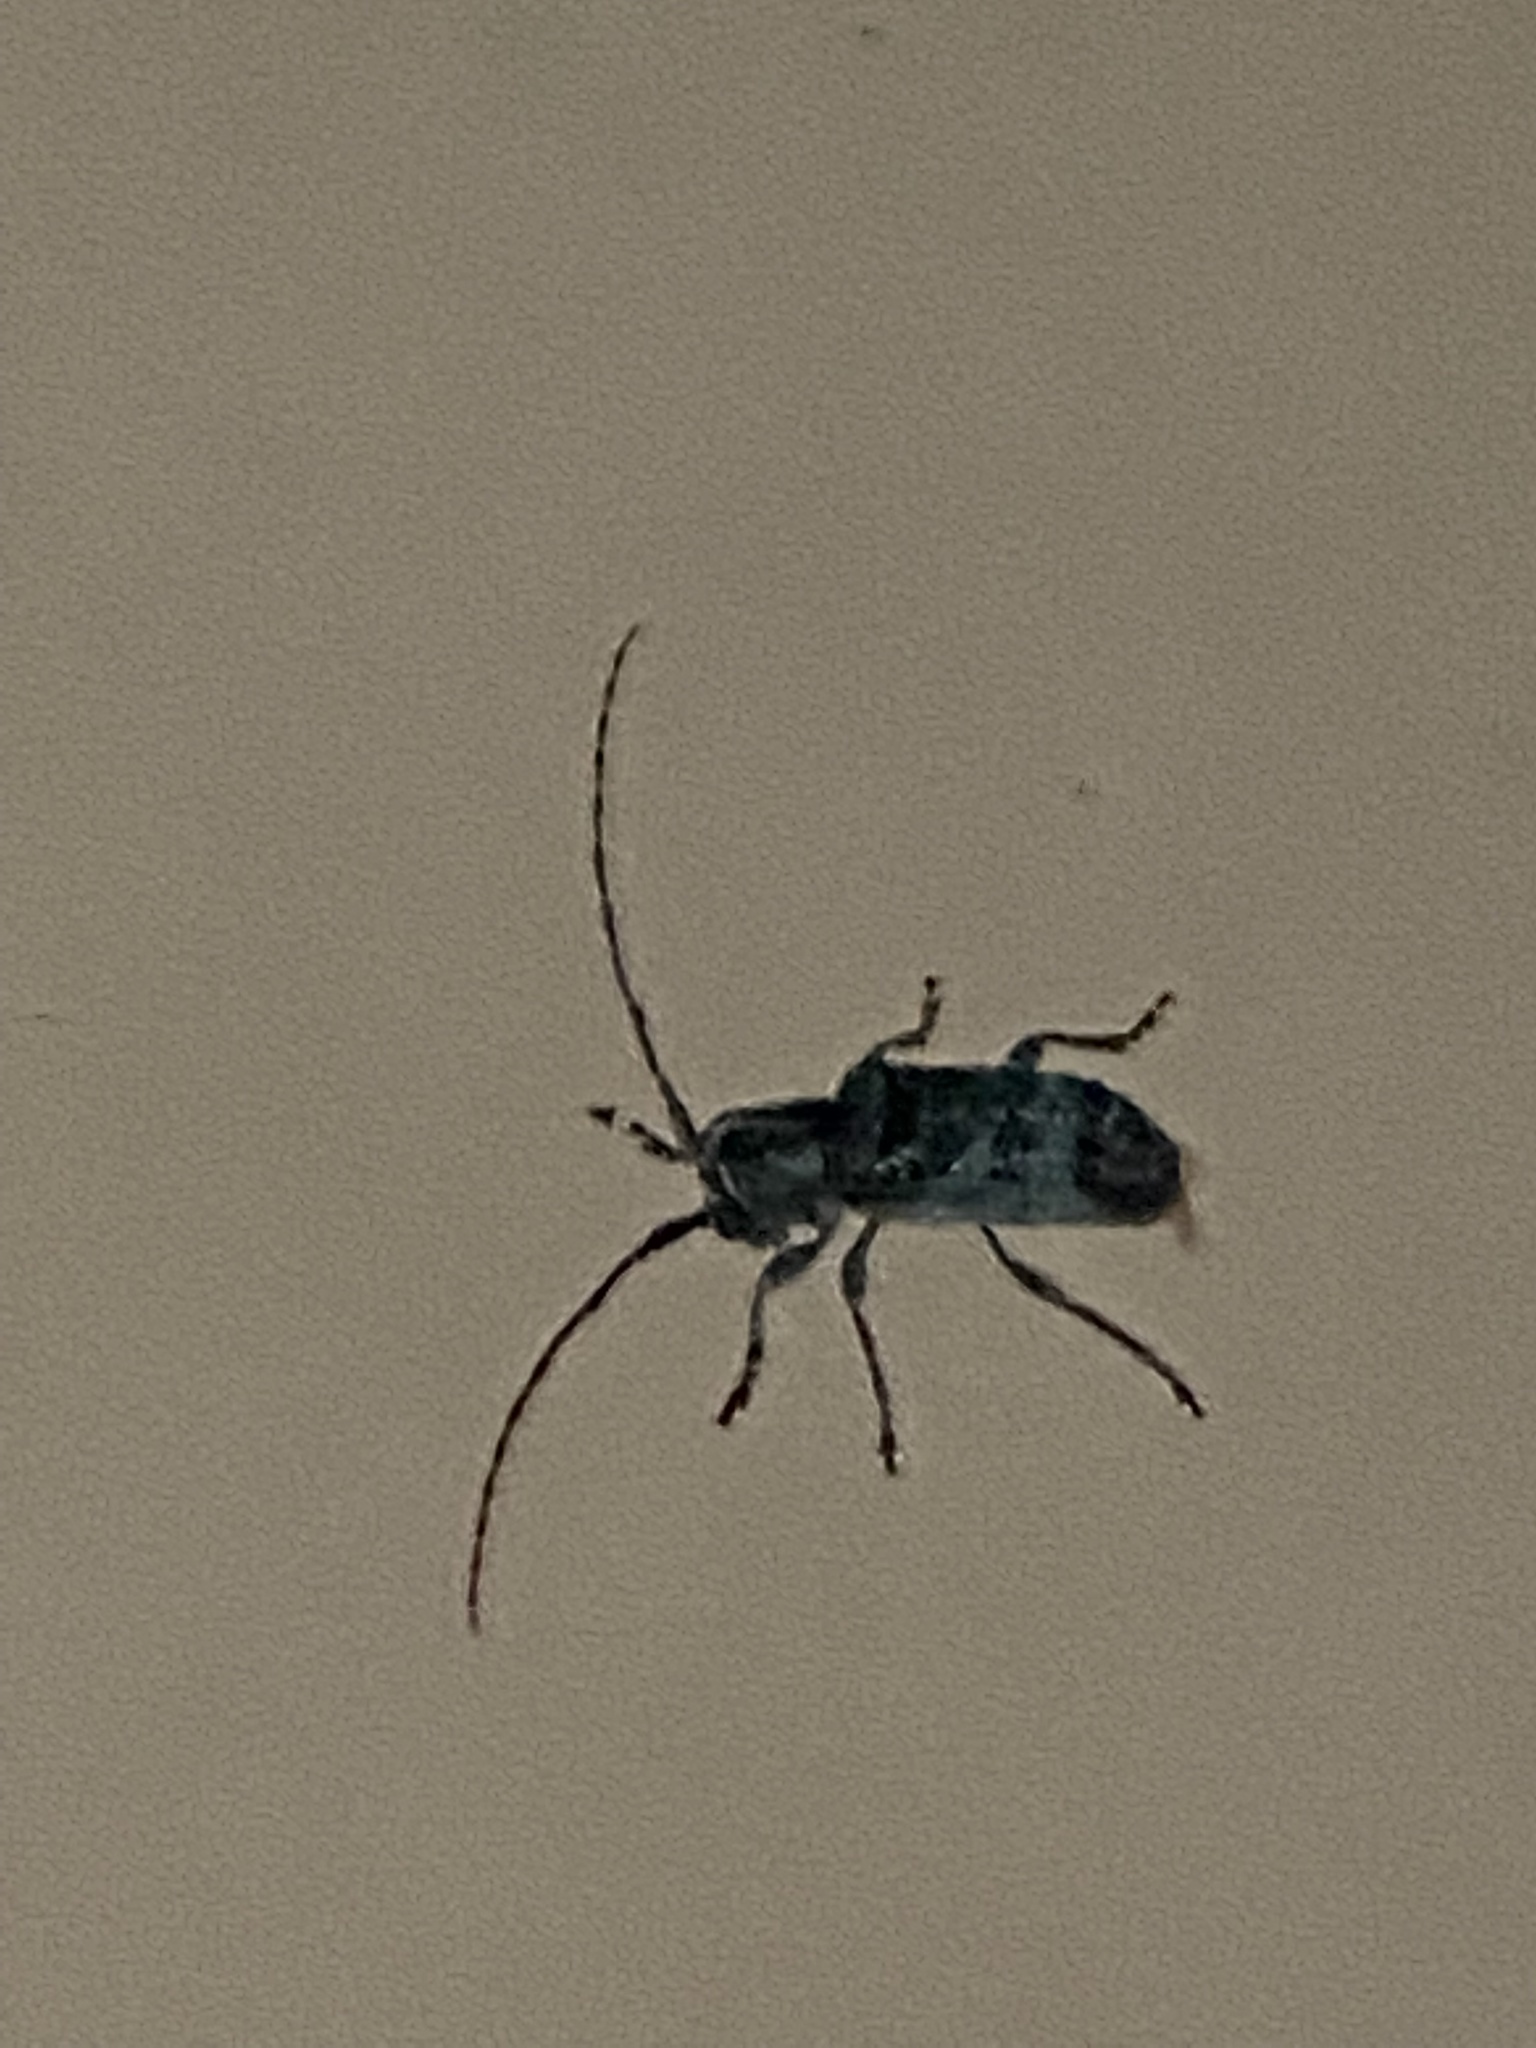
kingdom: Animalia
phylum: Arthropoda
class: Insecta
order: Coleoptera
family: Cerambycidae
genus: Ecyrus
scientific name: Ecyrus dasycerus
